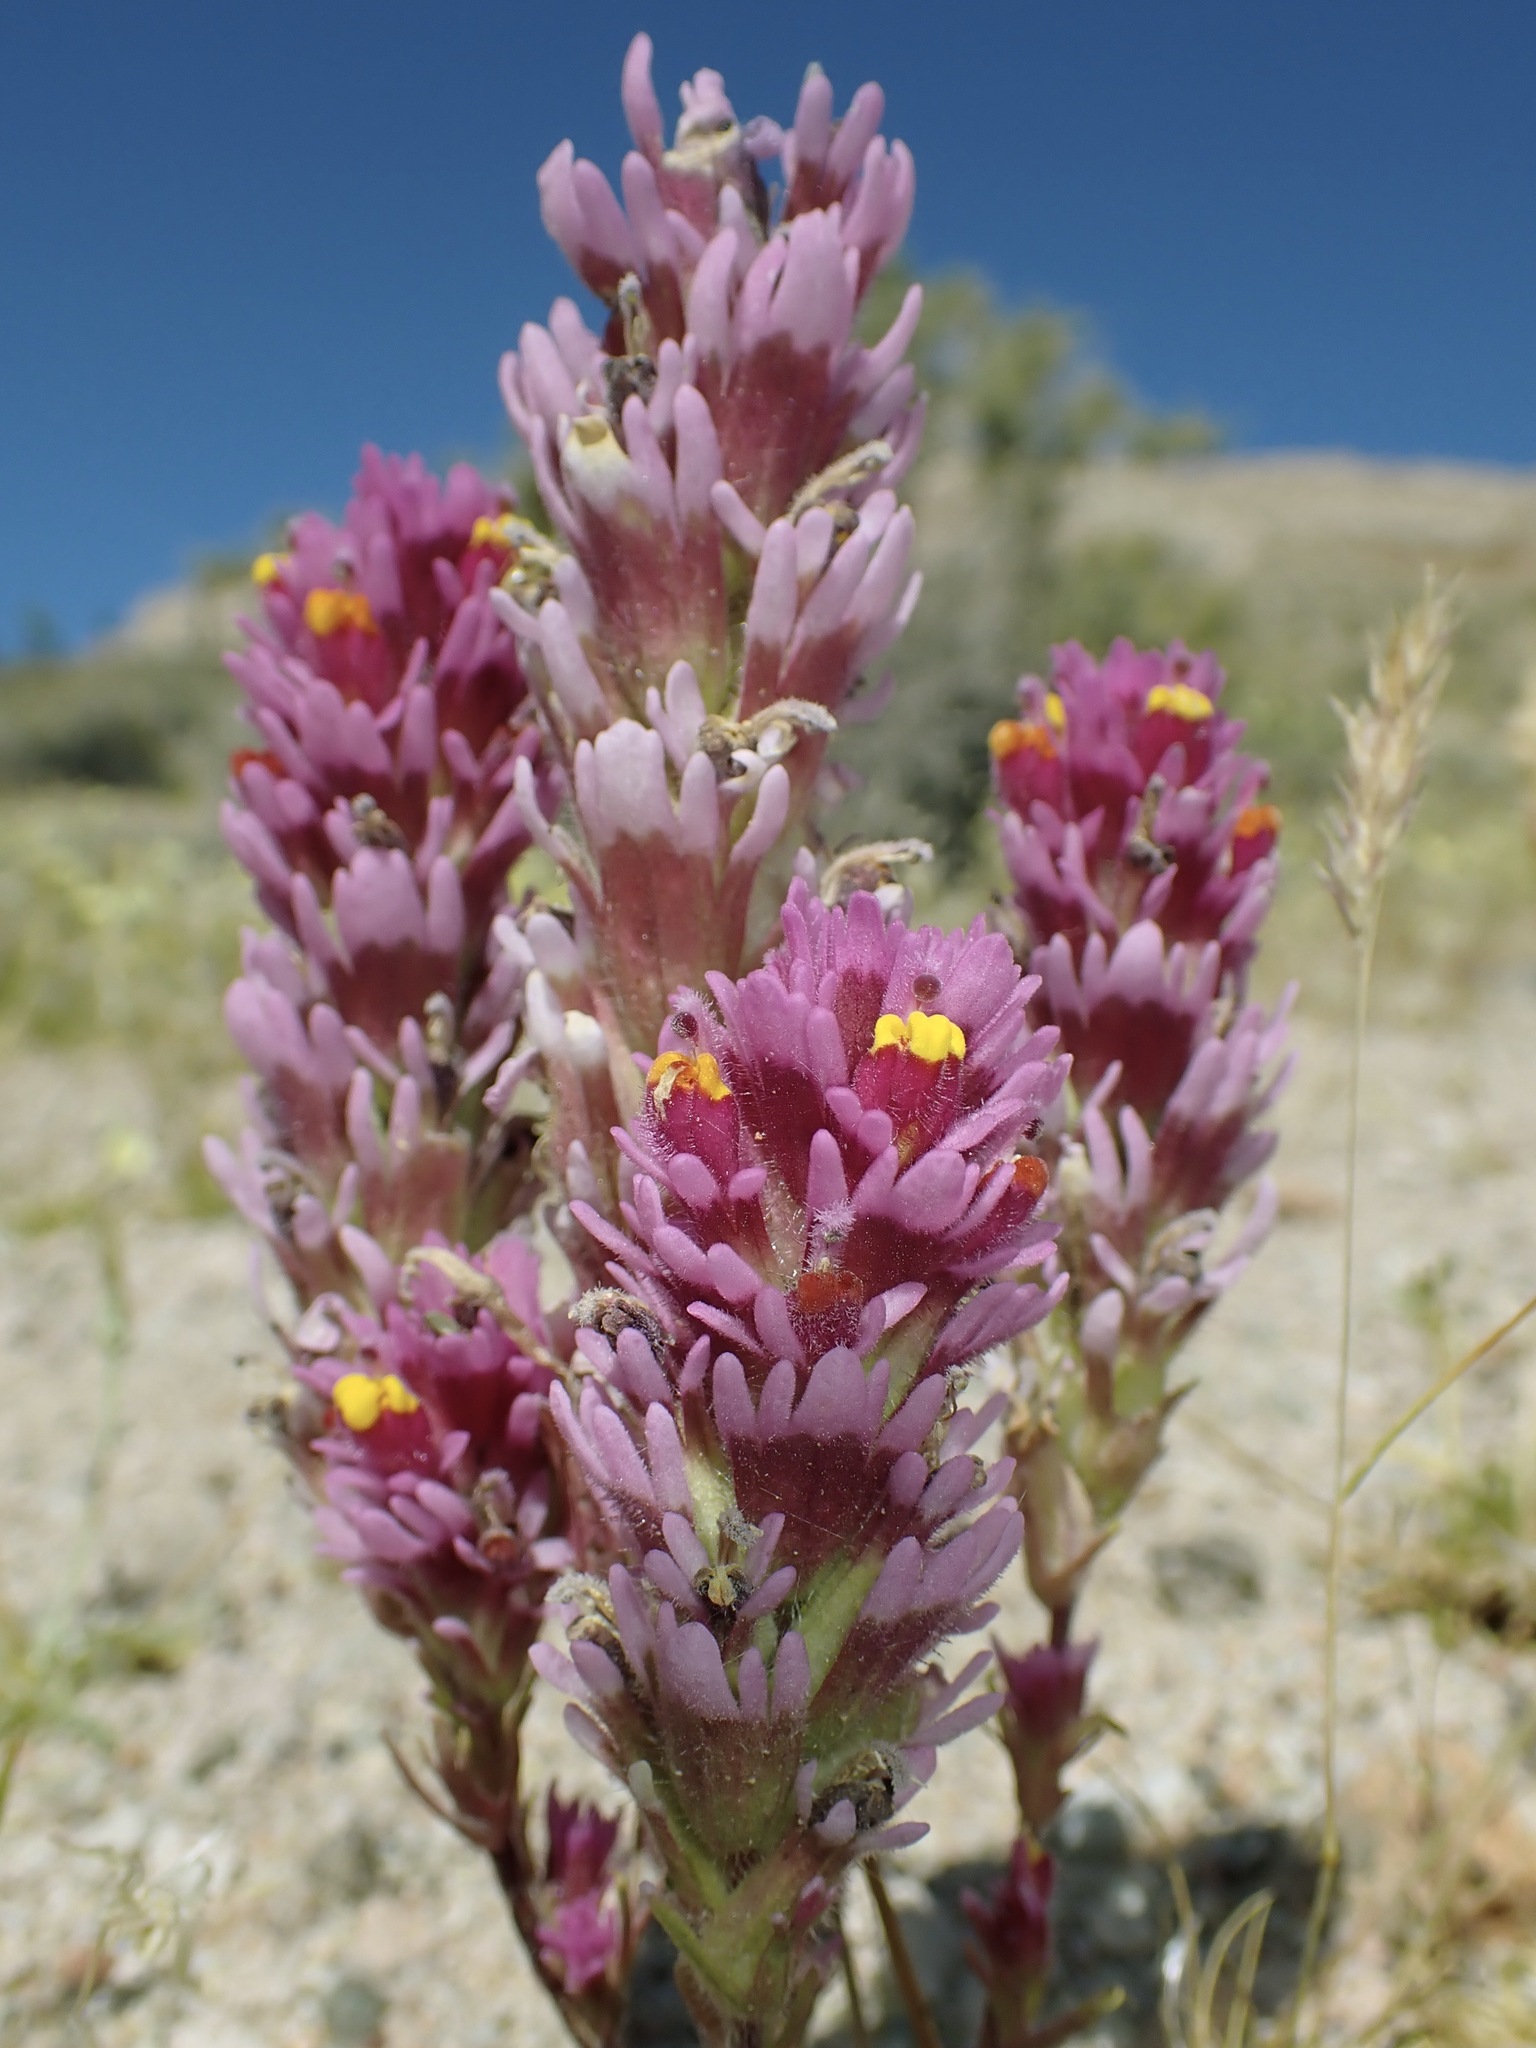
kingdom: Plantae
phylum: Tracheophyta
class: Magnoliopsida
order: Lamiales
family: Orobanchaceae
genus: Castilleja
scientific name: Castilleja exserta
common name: Purple owl-clover
